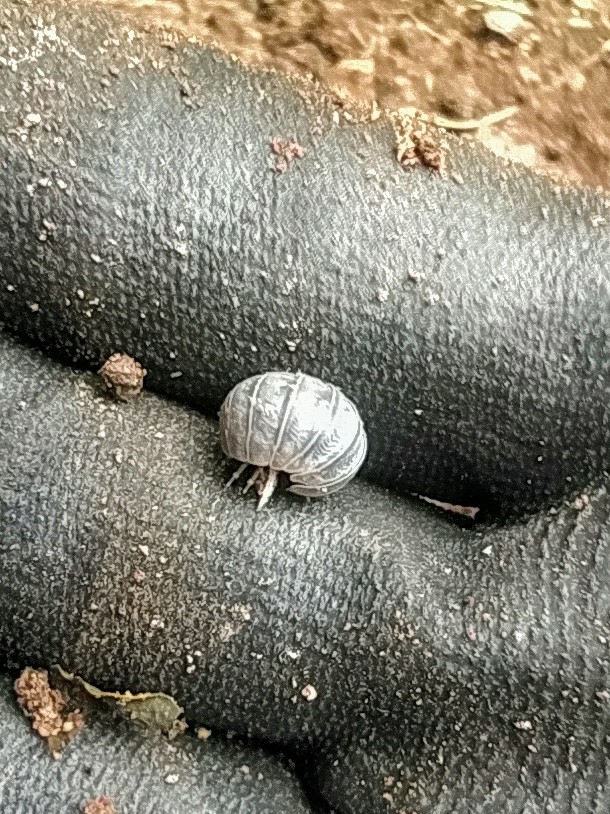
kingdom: Animalia
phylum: Arthropoda
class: Malacostraca
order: Isopoda
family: Armadillidiidae
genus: Armadillidium
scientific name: Armadillidium vulgare
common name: Common pill woodlouse
